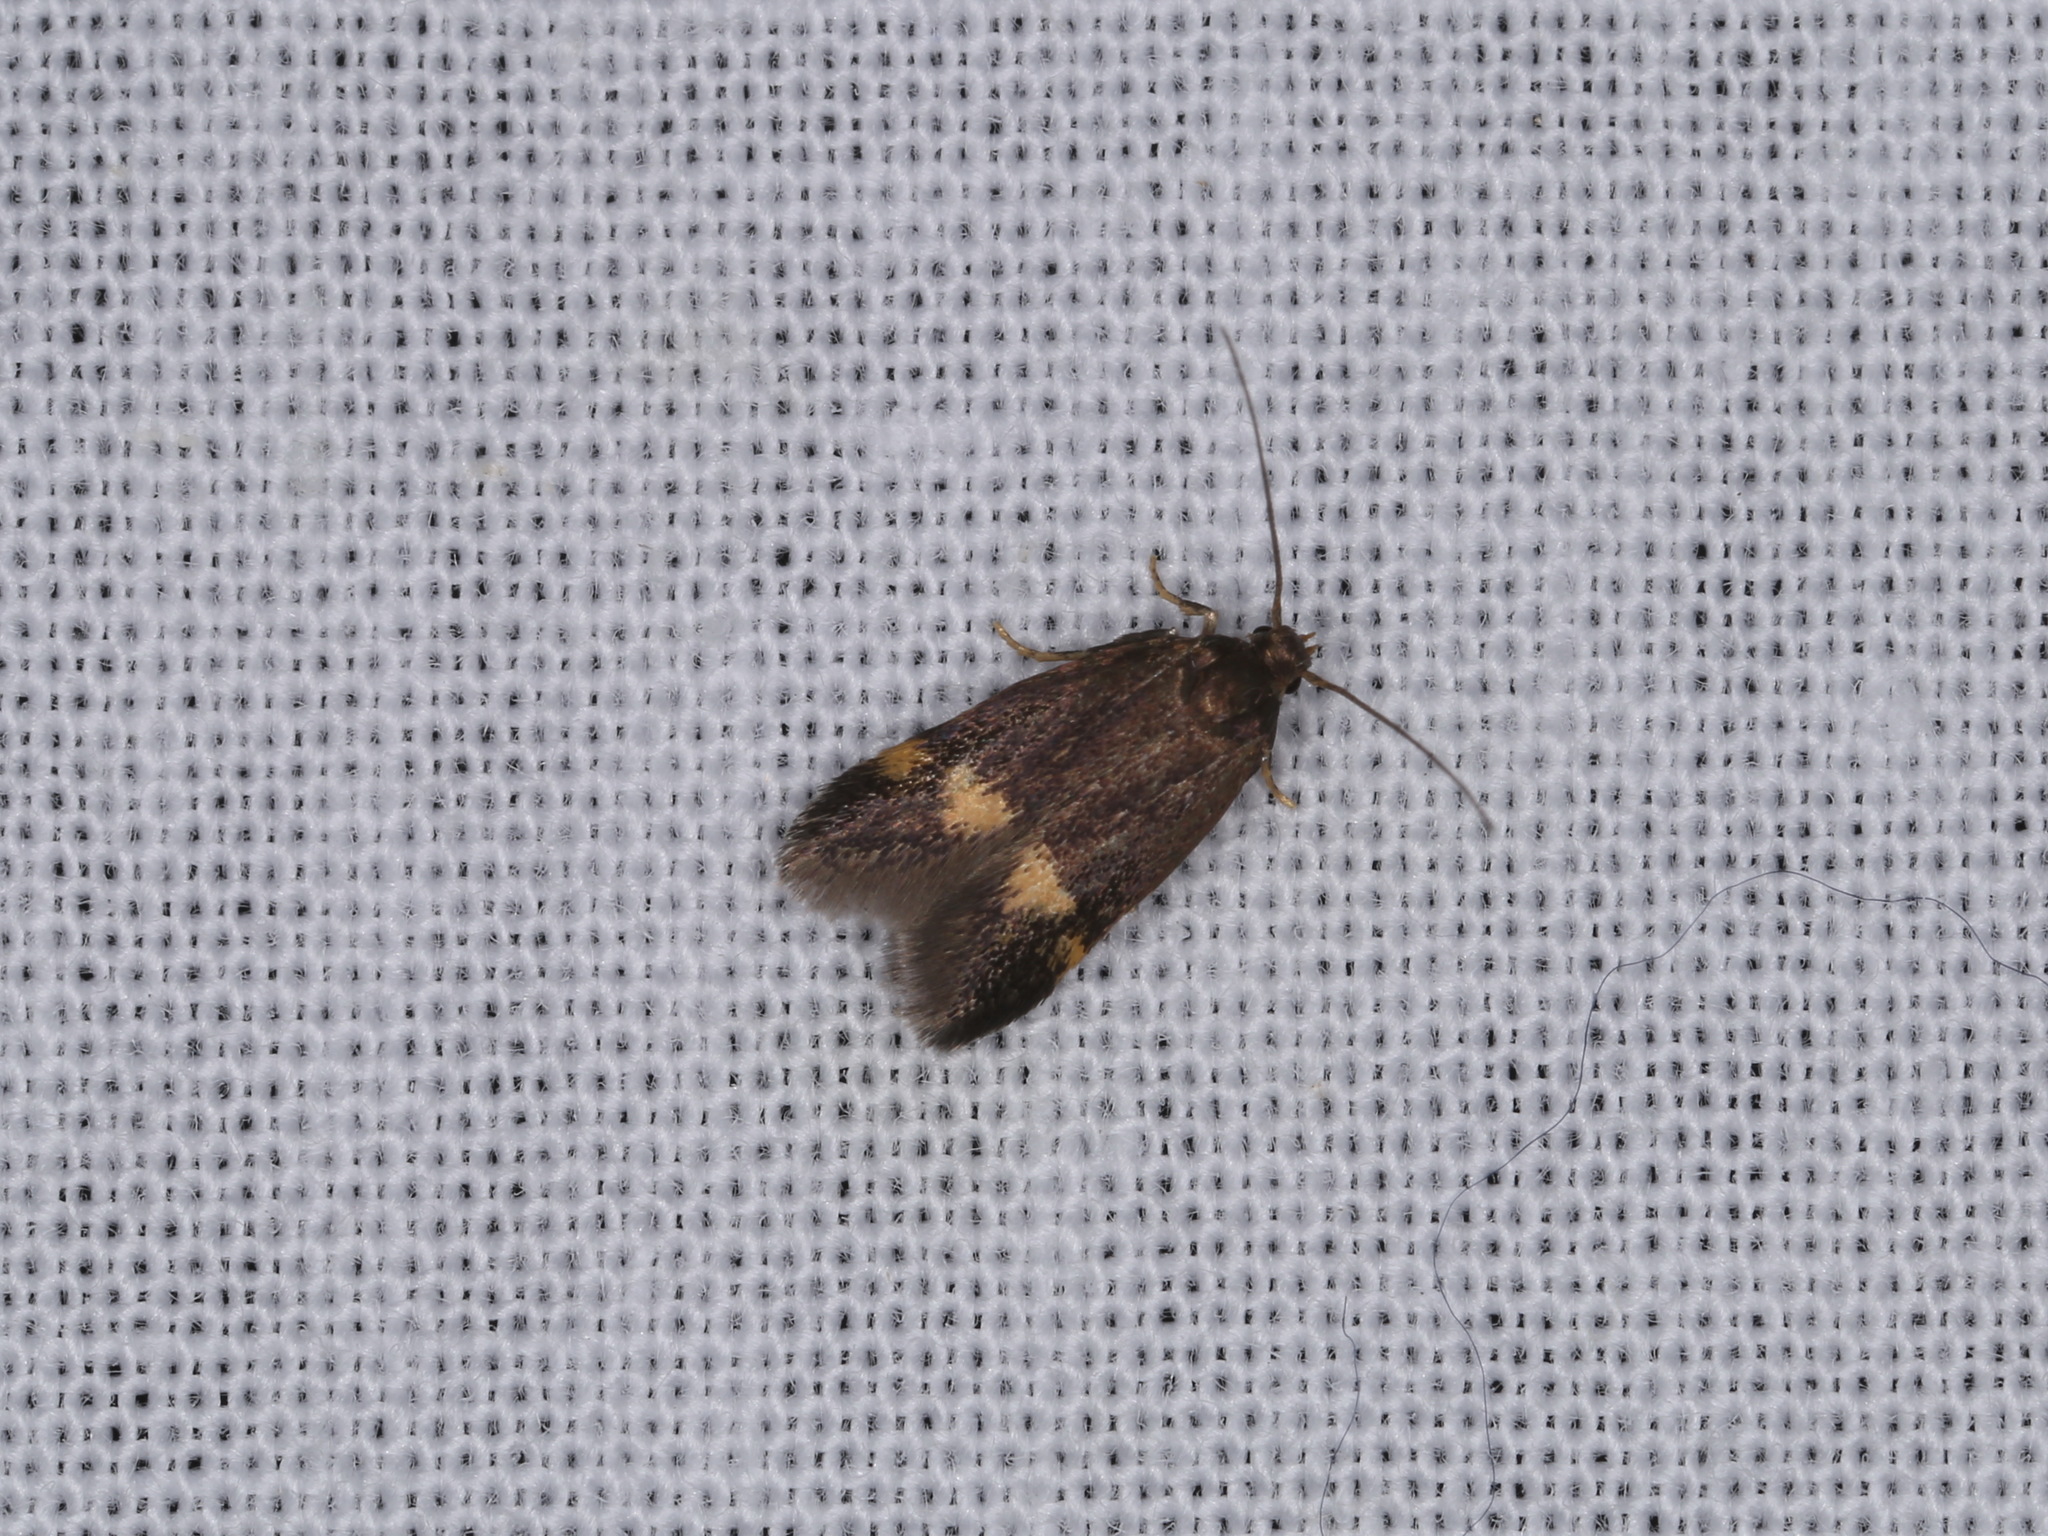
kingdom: Animalia
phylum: Arthropoda
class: Insecta
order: Lepidoptera
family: Oecophoridae
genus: Borkhausenia
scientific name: Borkhausenia minutella
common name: Thatch tubic
